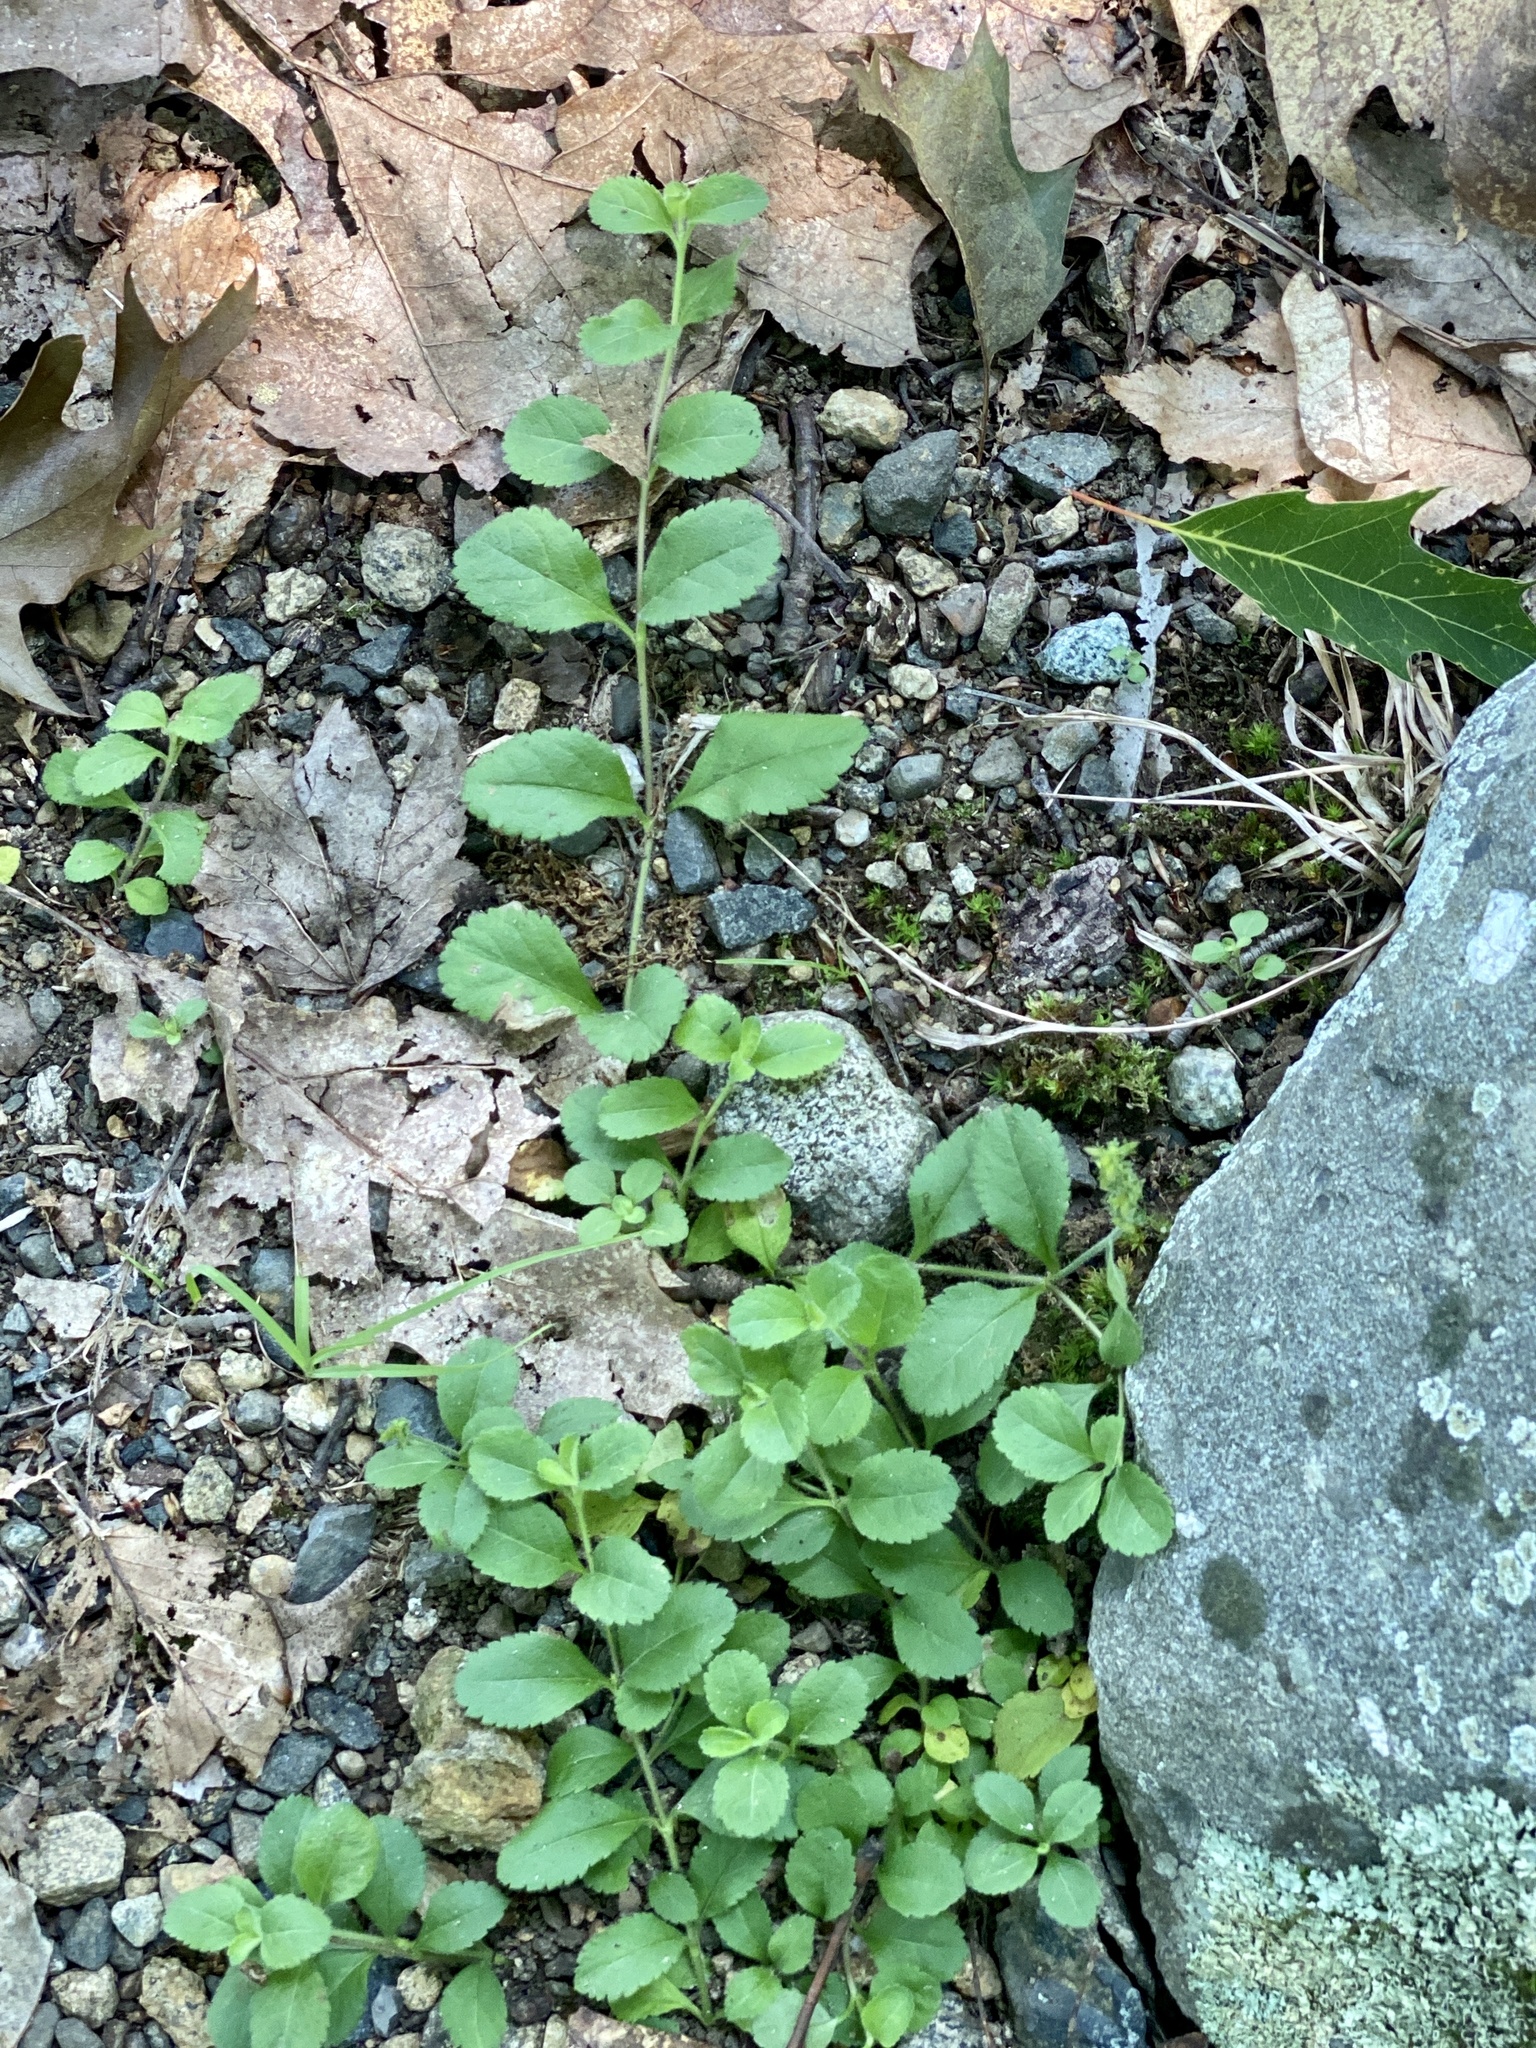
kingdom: Plantae
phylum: Tracheophyta
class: Magnoliopsida
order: Lamiales
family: Plantaginaceae
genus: Veronica
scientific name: Veronica officinalis
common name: Common speedwell
